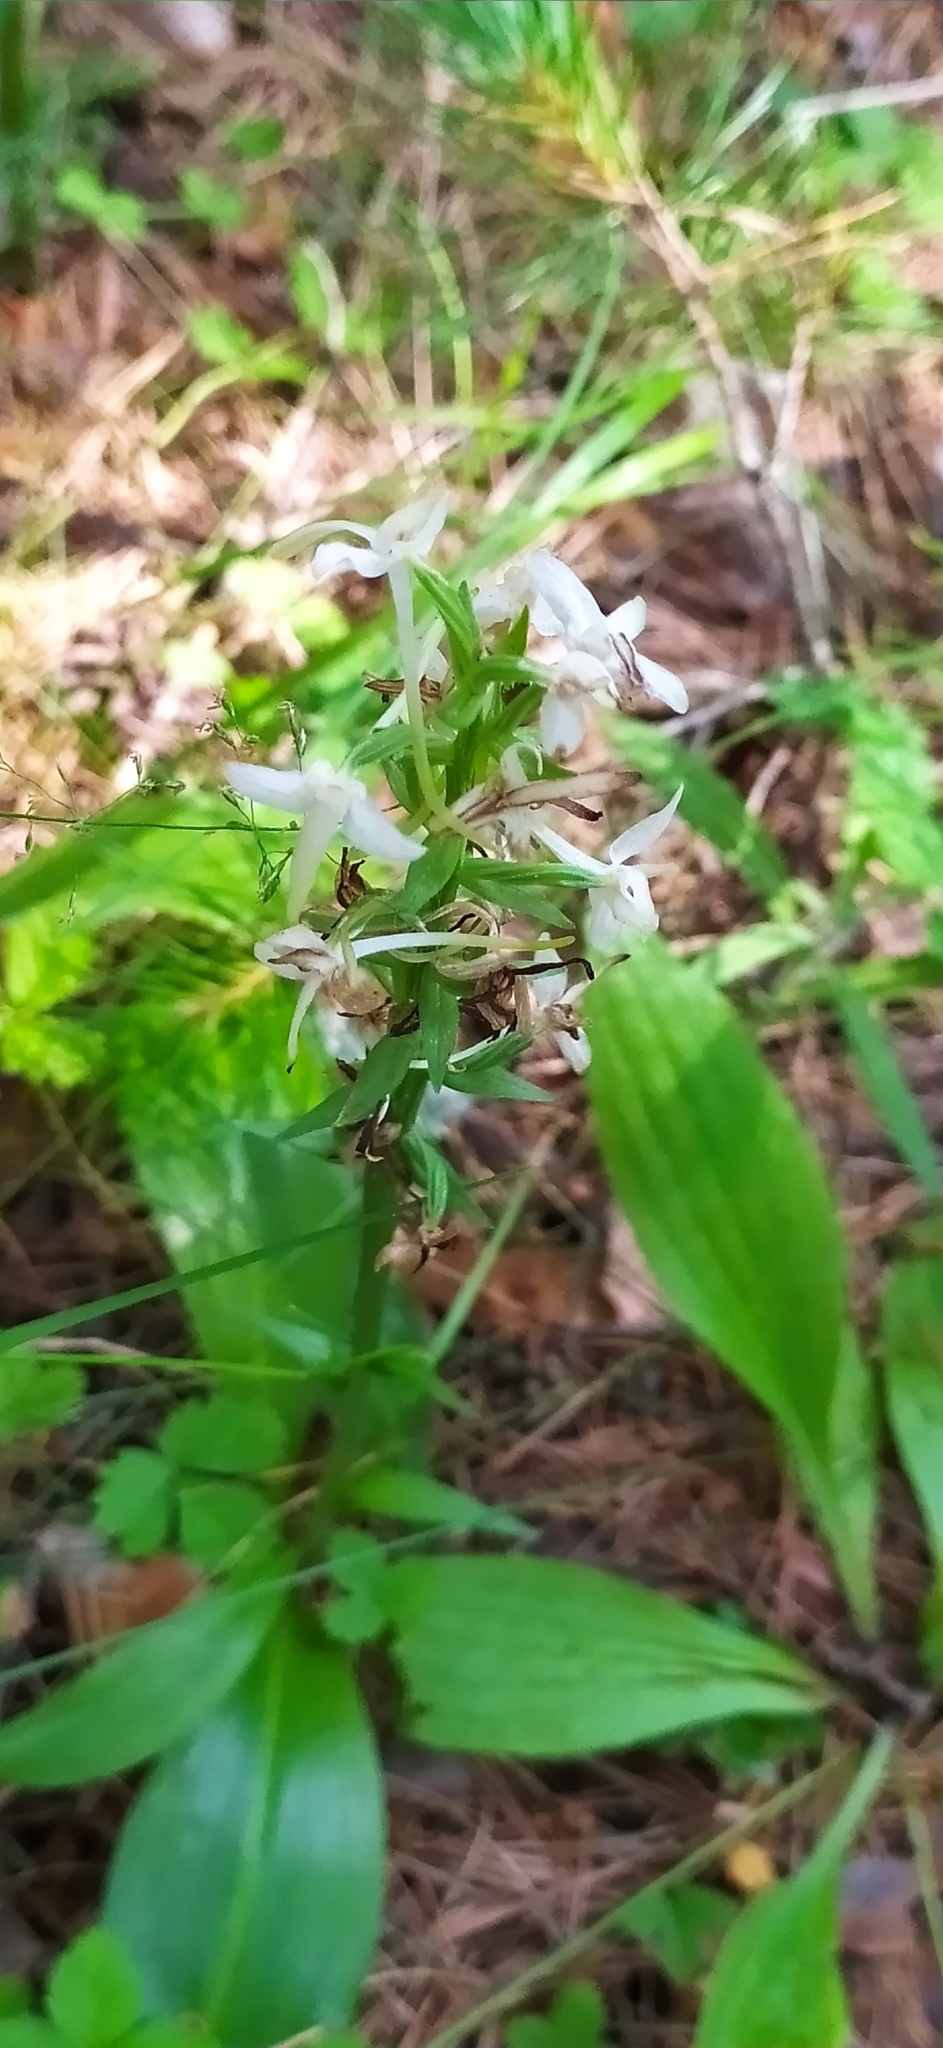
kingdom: Plantae
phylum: Tracheophyta
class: Liliopsida
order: Asparagales
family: Orchidaceae
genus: Platanthera
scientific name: Platanthera bifolia
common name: Lesser butterfly-orchid
